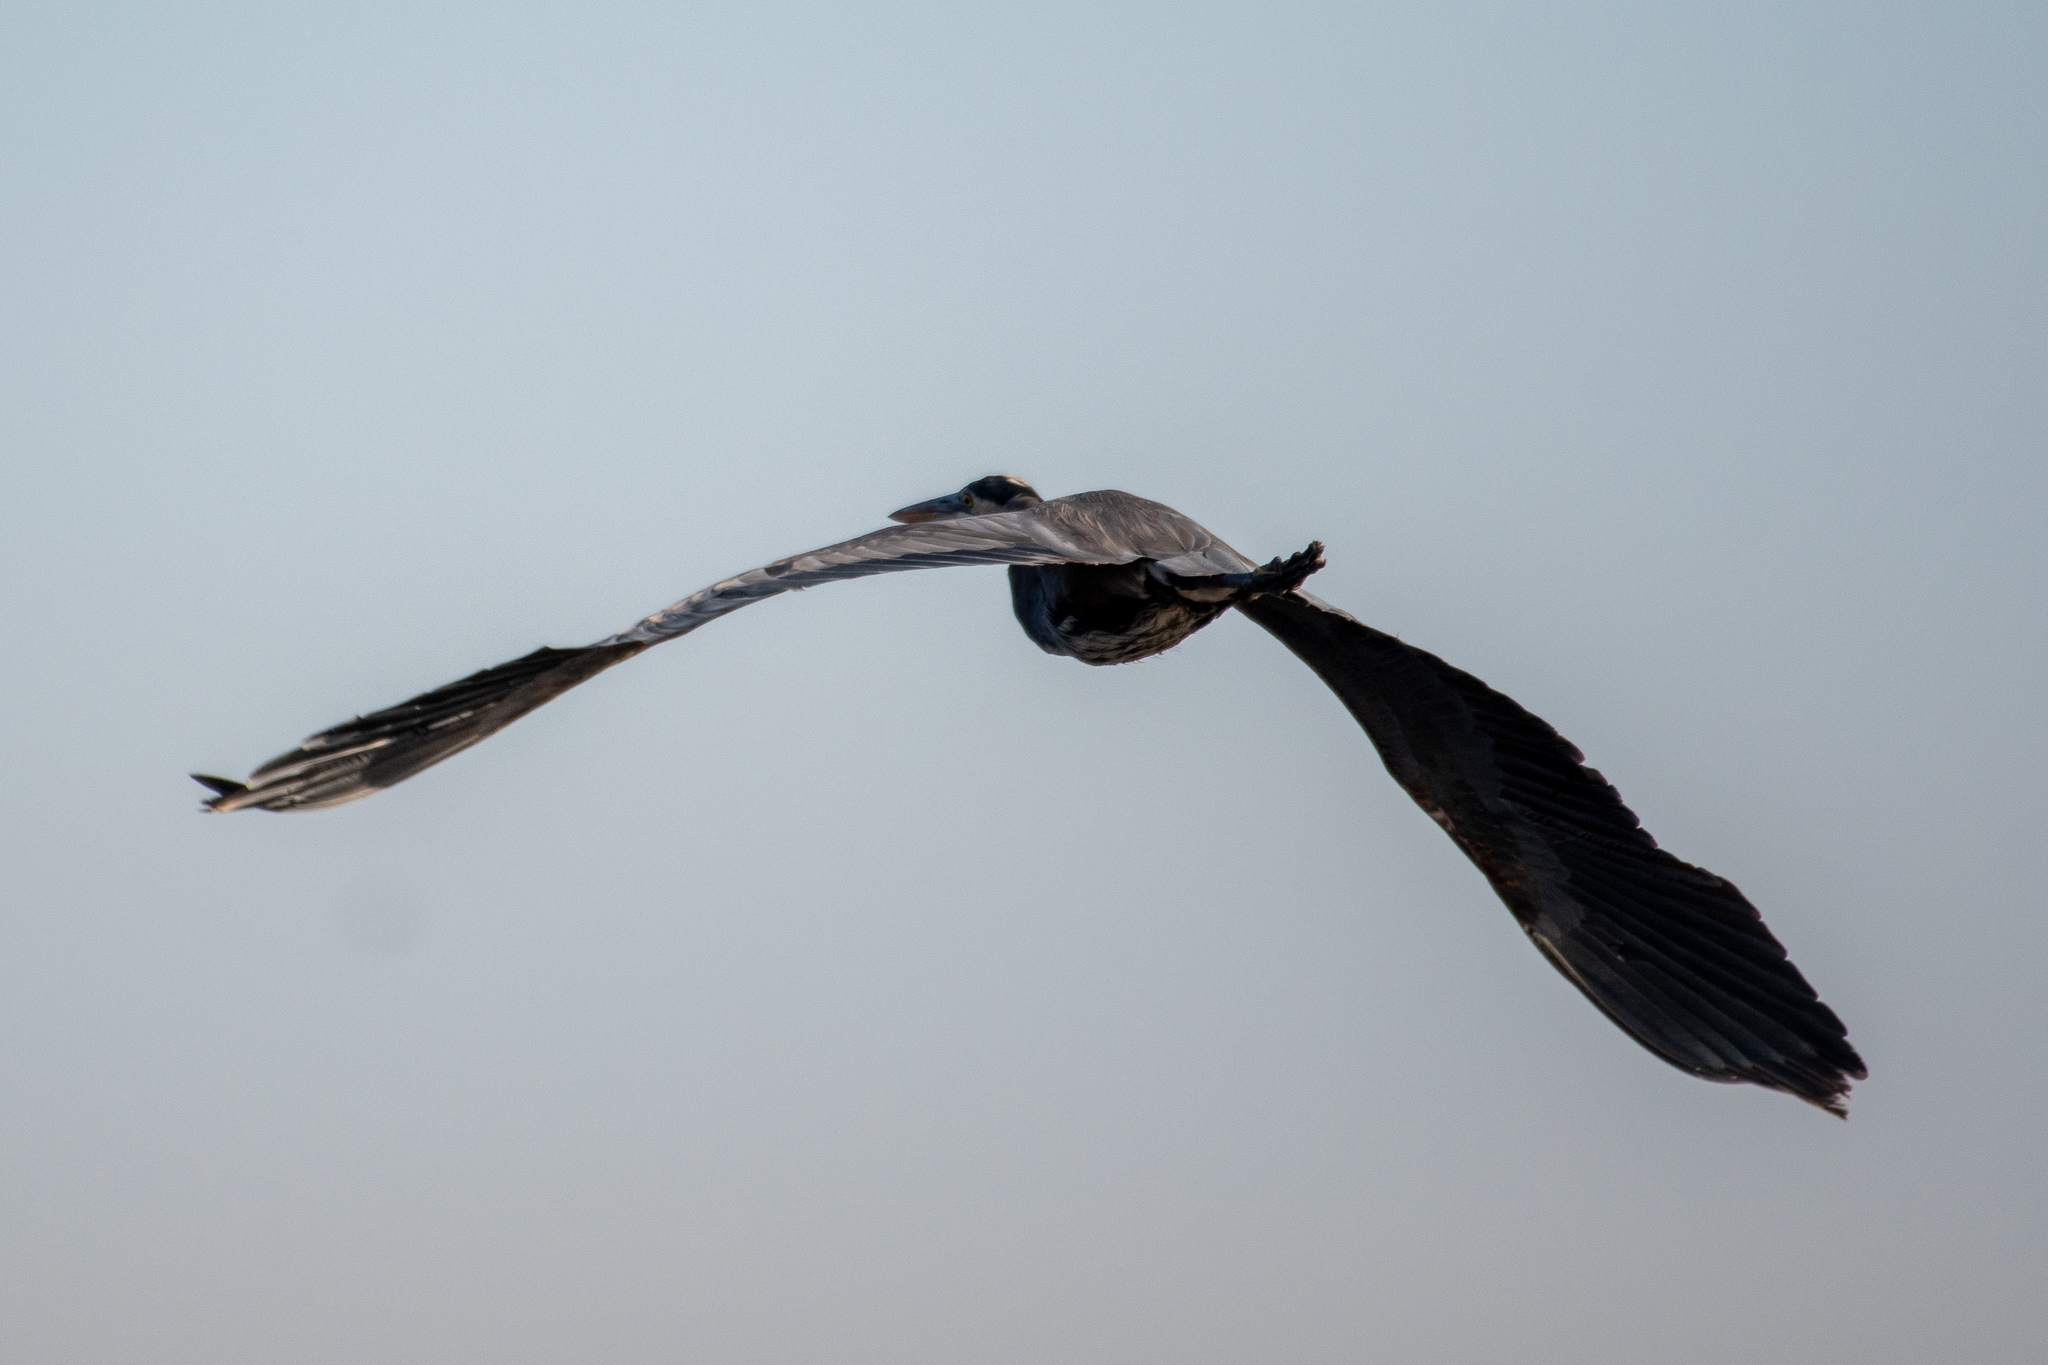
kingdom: Animalia
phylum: Chordata
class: Aves
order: Pelecaniformes
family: Ardeidae
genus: Ardea
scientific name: Ardea herodias
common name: Great blue heron
